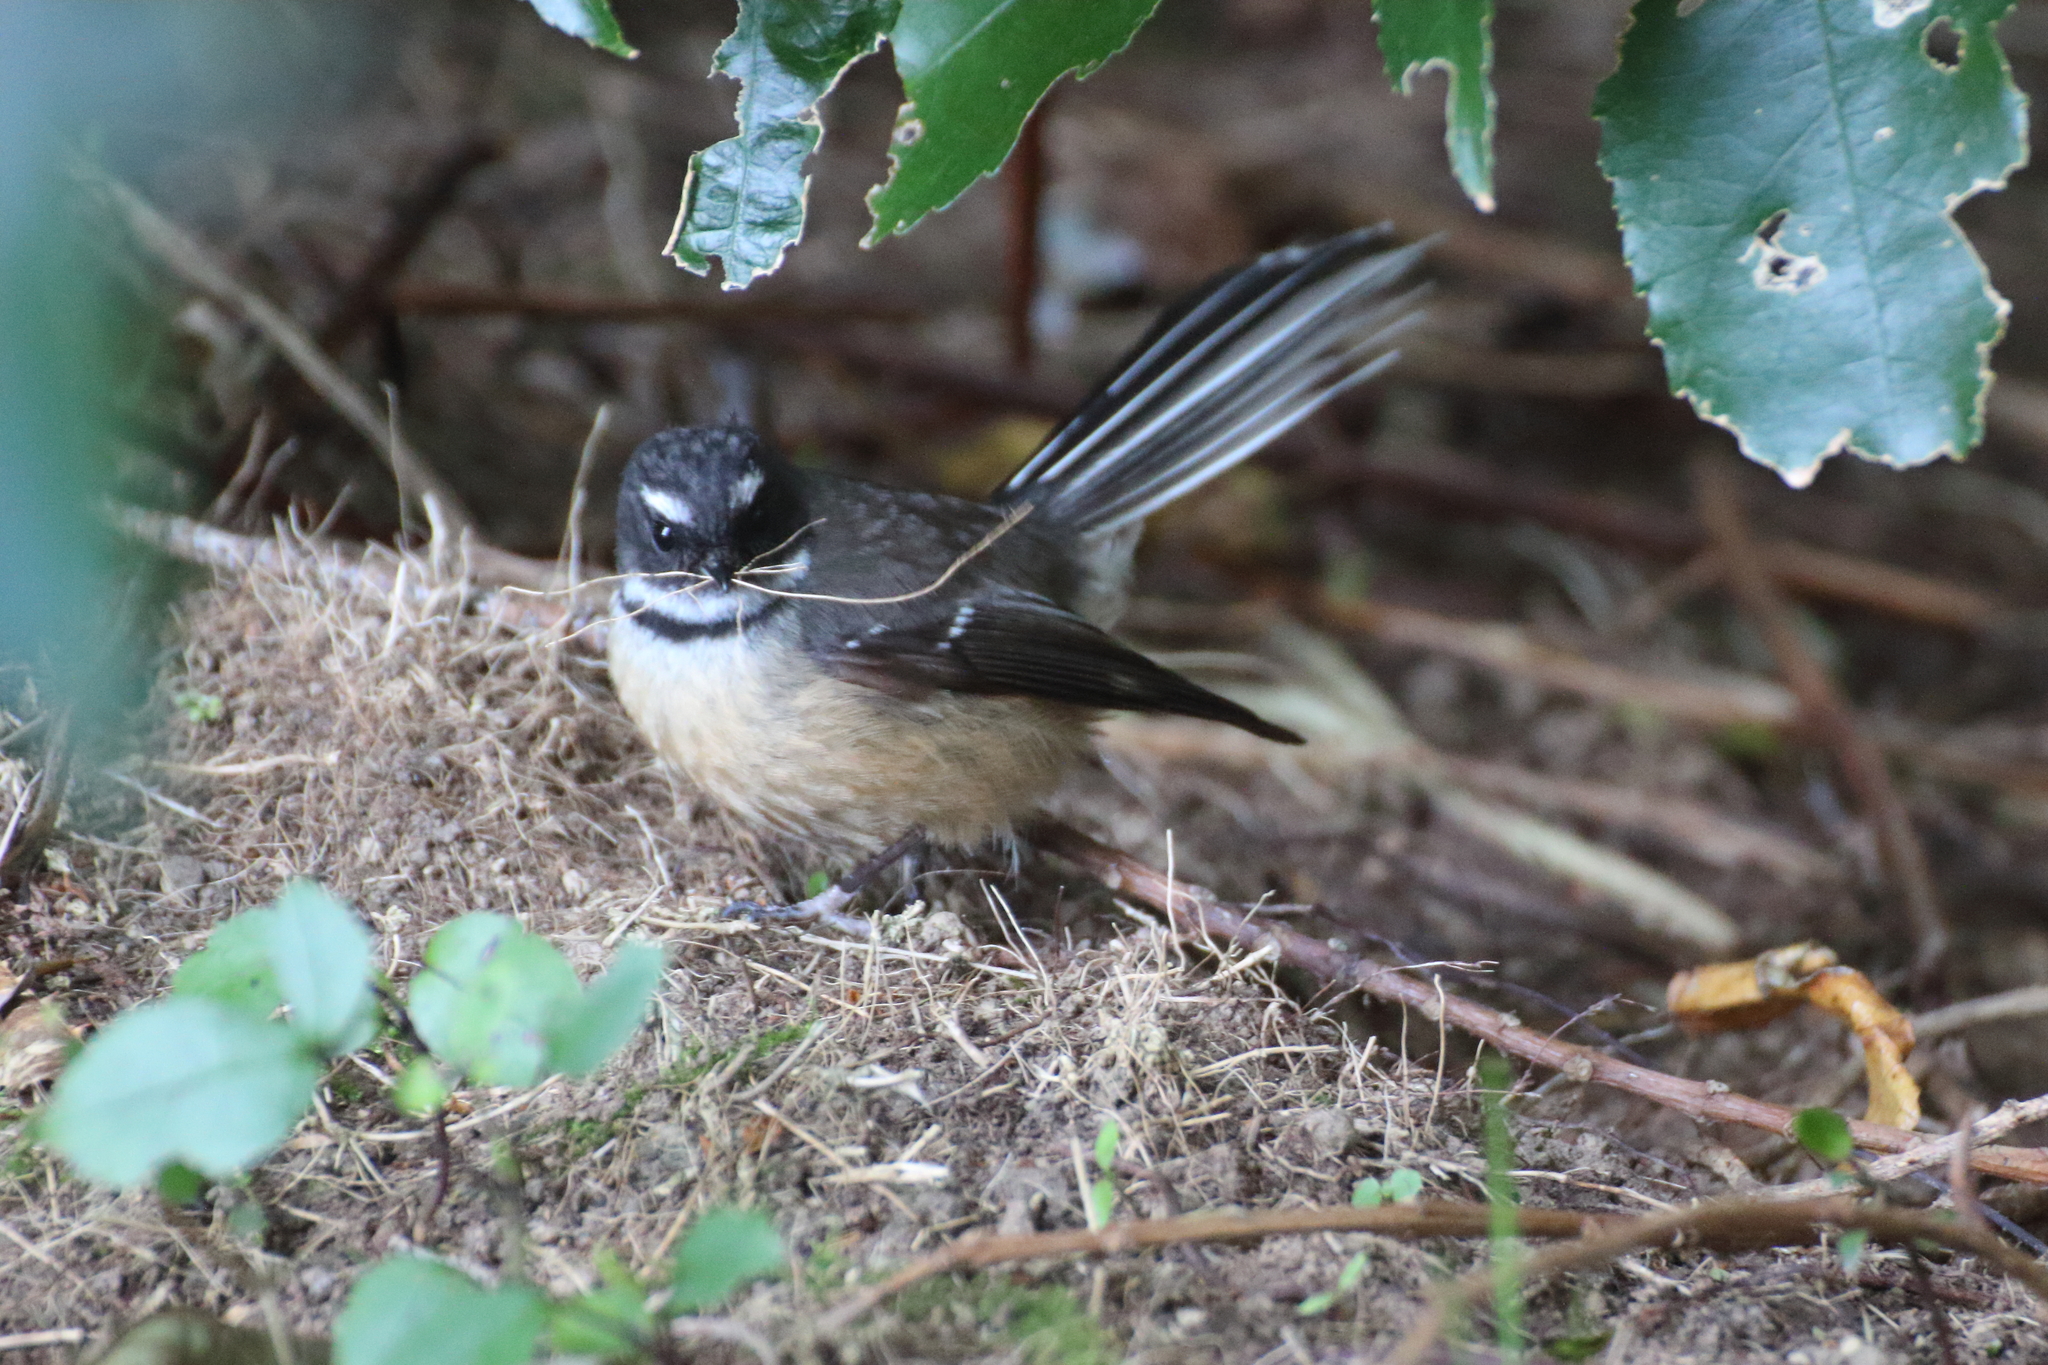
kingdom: Animalia
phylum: Chordata
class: Aves
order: Passeriformes
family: Rhipiduridae
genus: Rhipidura
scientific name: Rhipidura fuliginosa
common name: New zealand fantail
